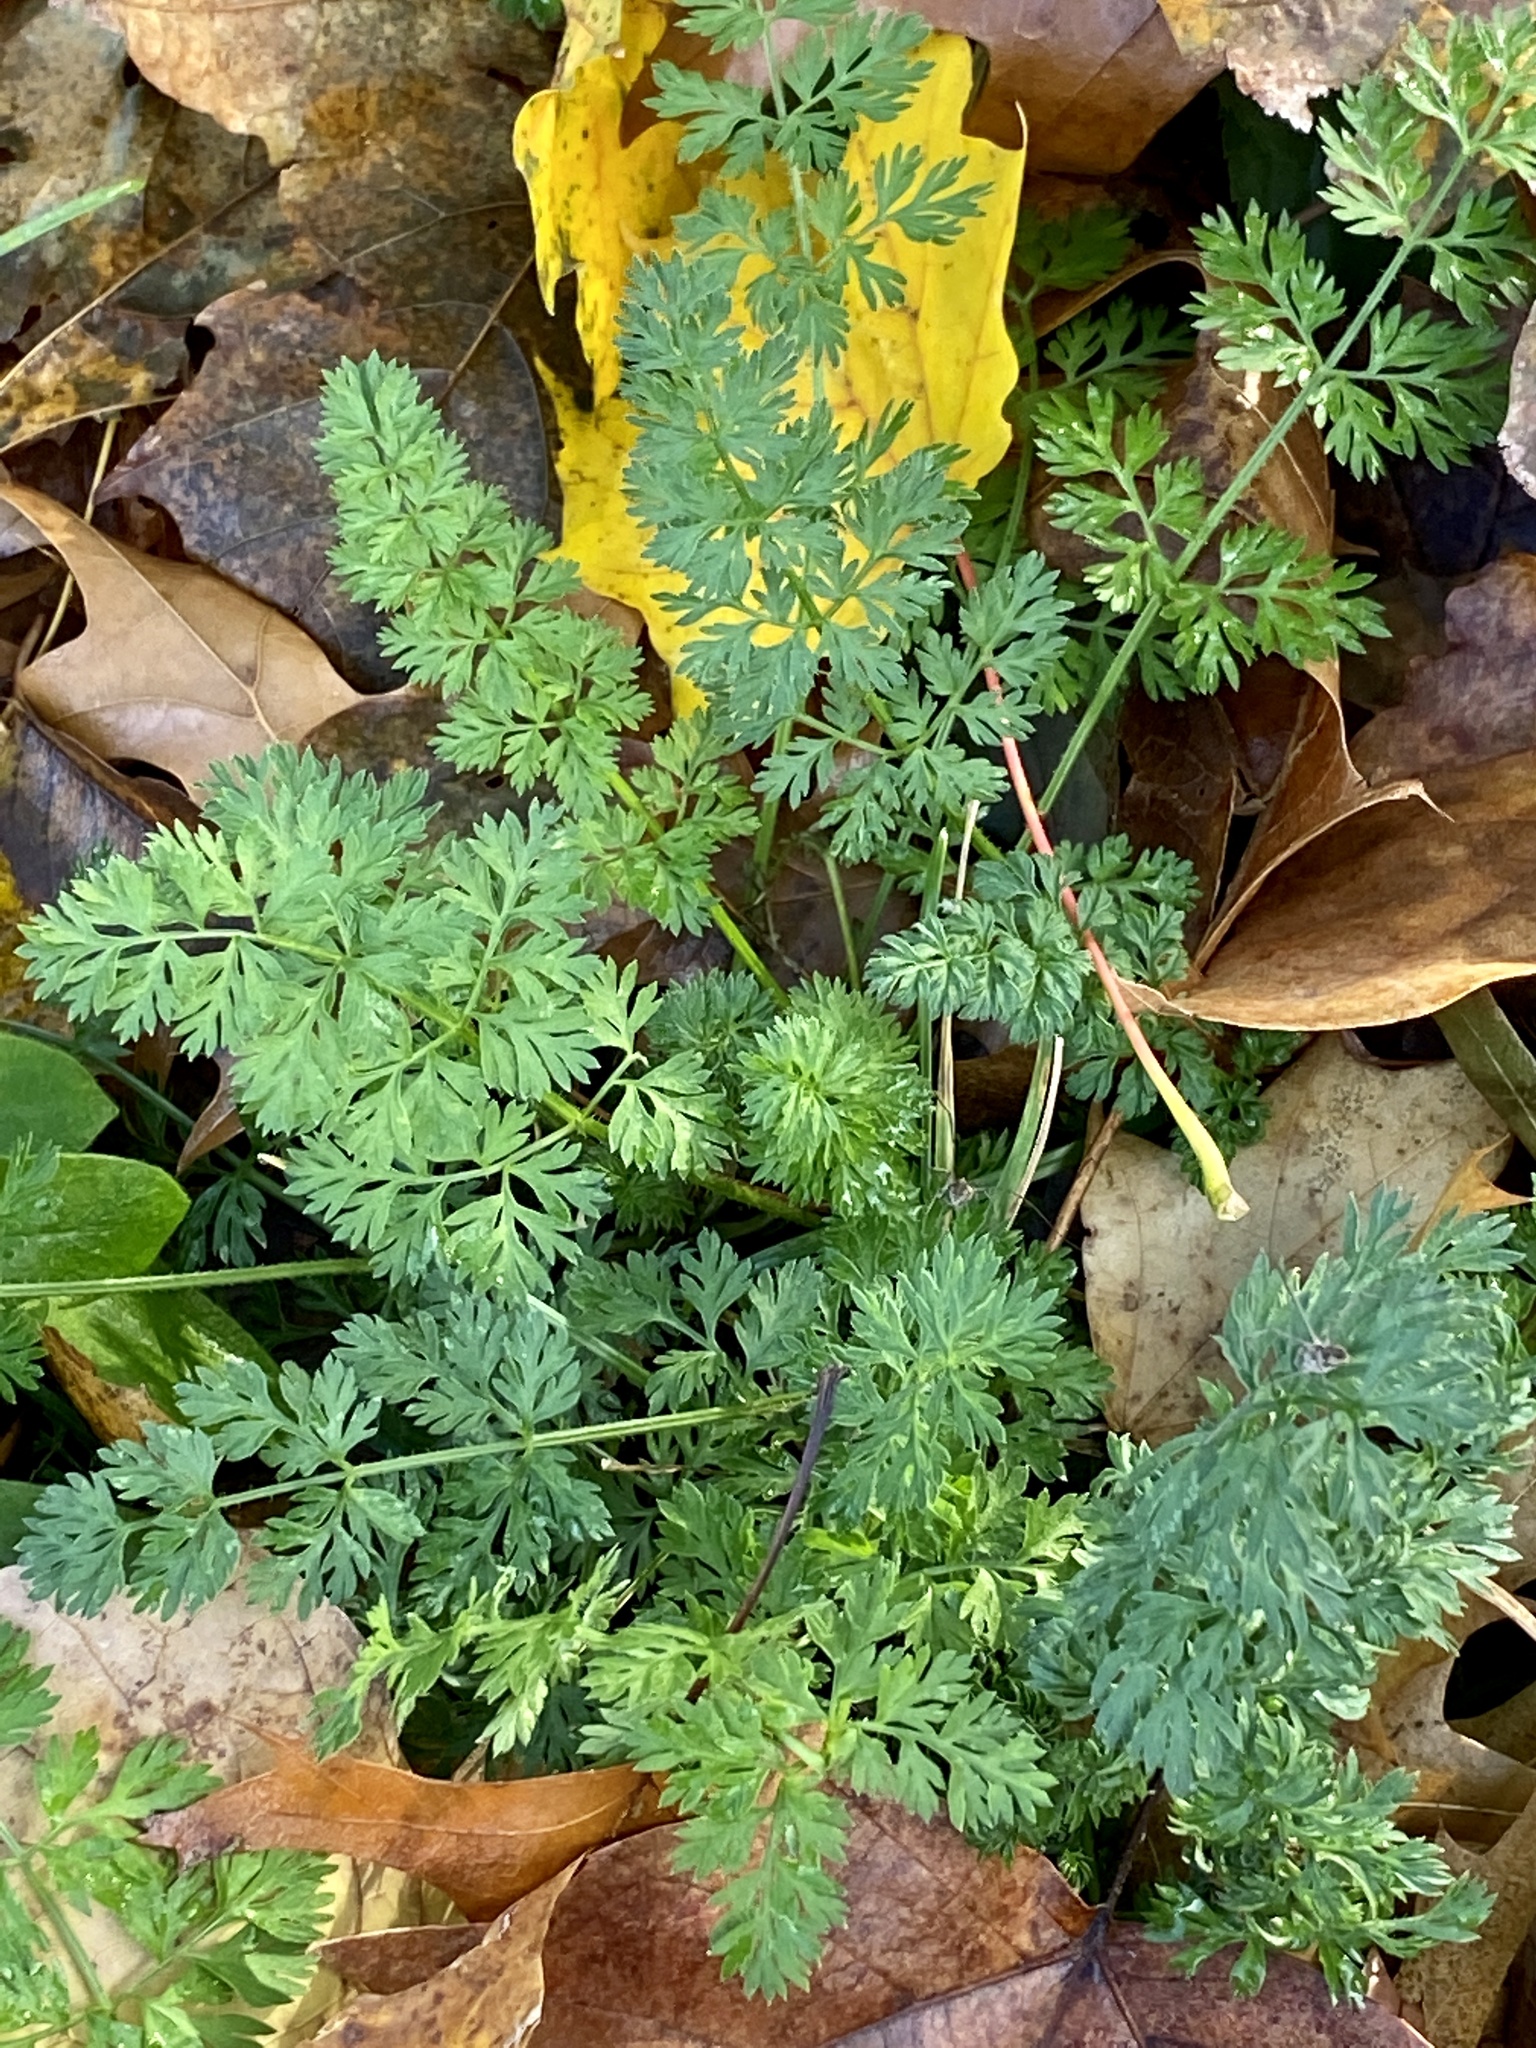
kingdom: Plantae
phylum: Tracheophyta
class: Magnoliopsida
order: Apiales
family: Apiaceae
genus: Daucus
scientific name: Daucus carota
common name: Wild carrot
